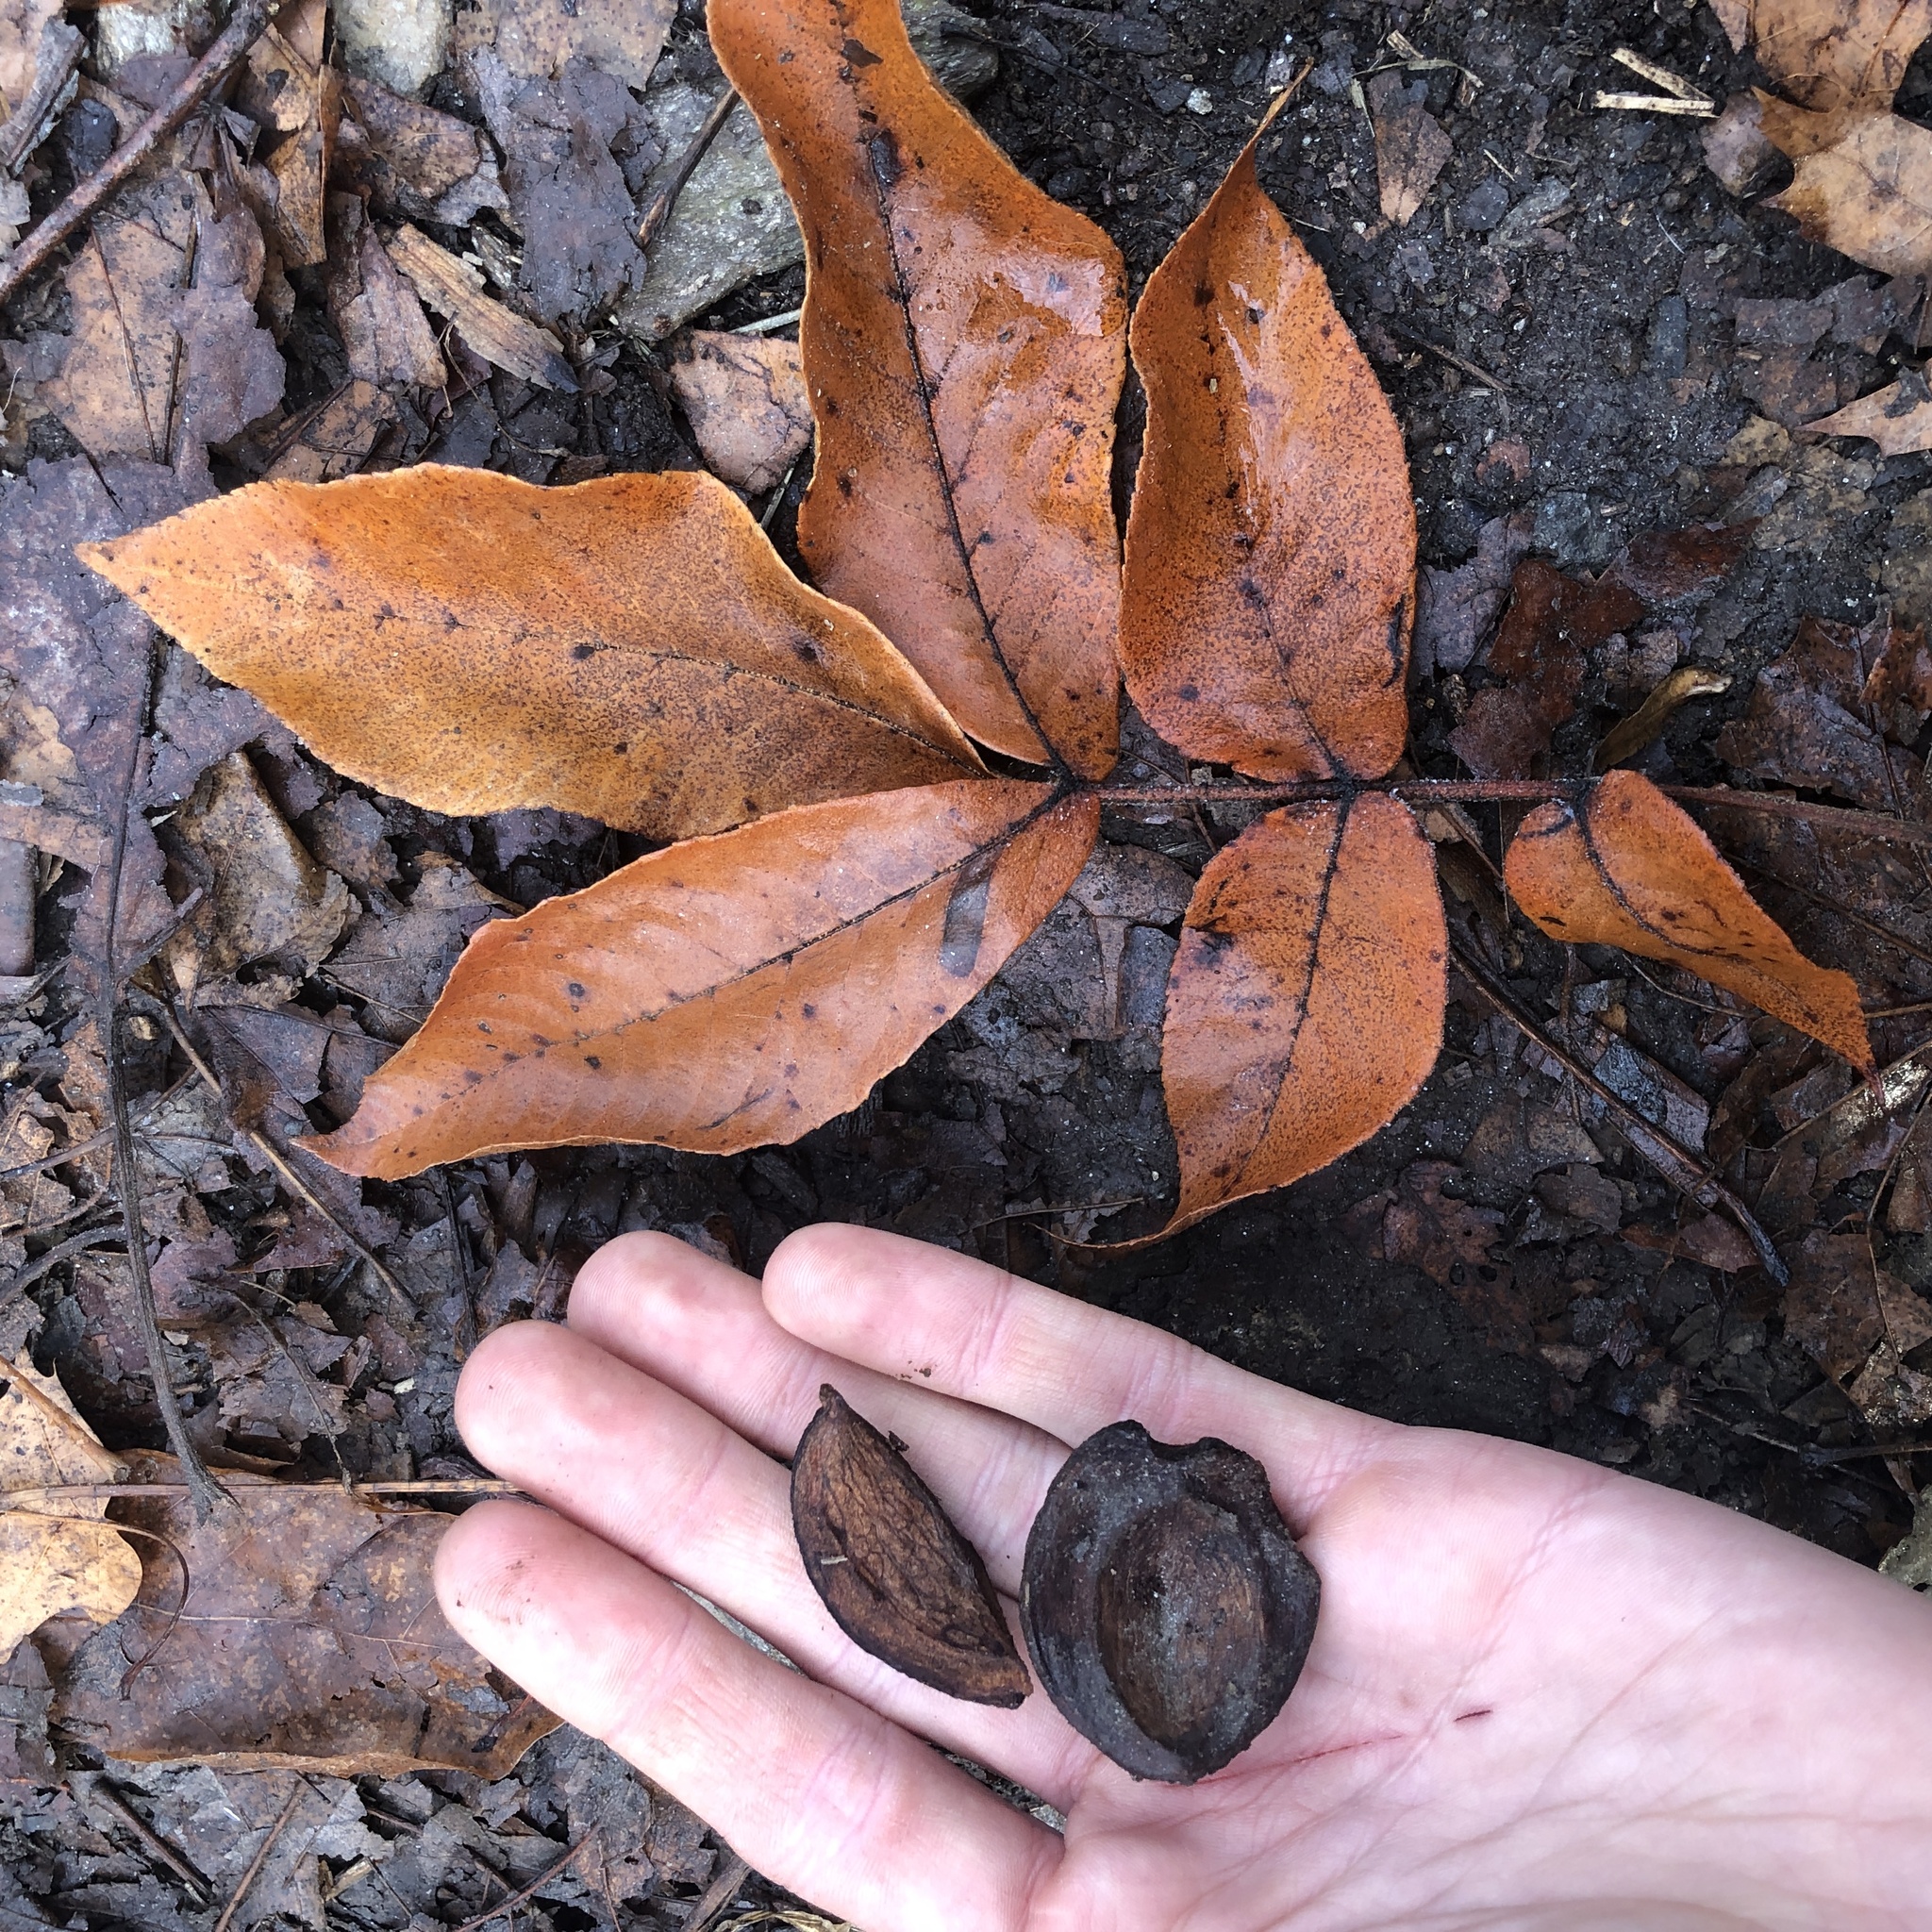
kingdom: Plantae
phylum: Tracheophyta
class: Magnoliopsida
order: Fagales
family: Juglandaceae
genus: Carya
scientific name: Carya alba
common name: Mockernut hickory
